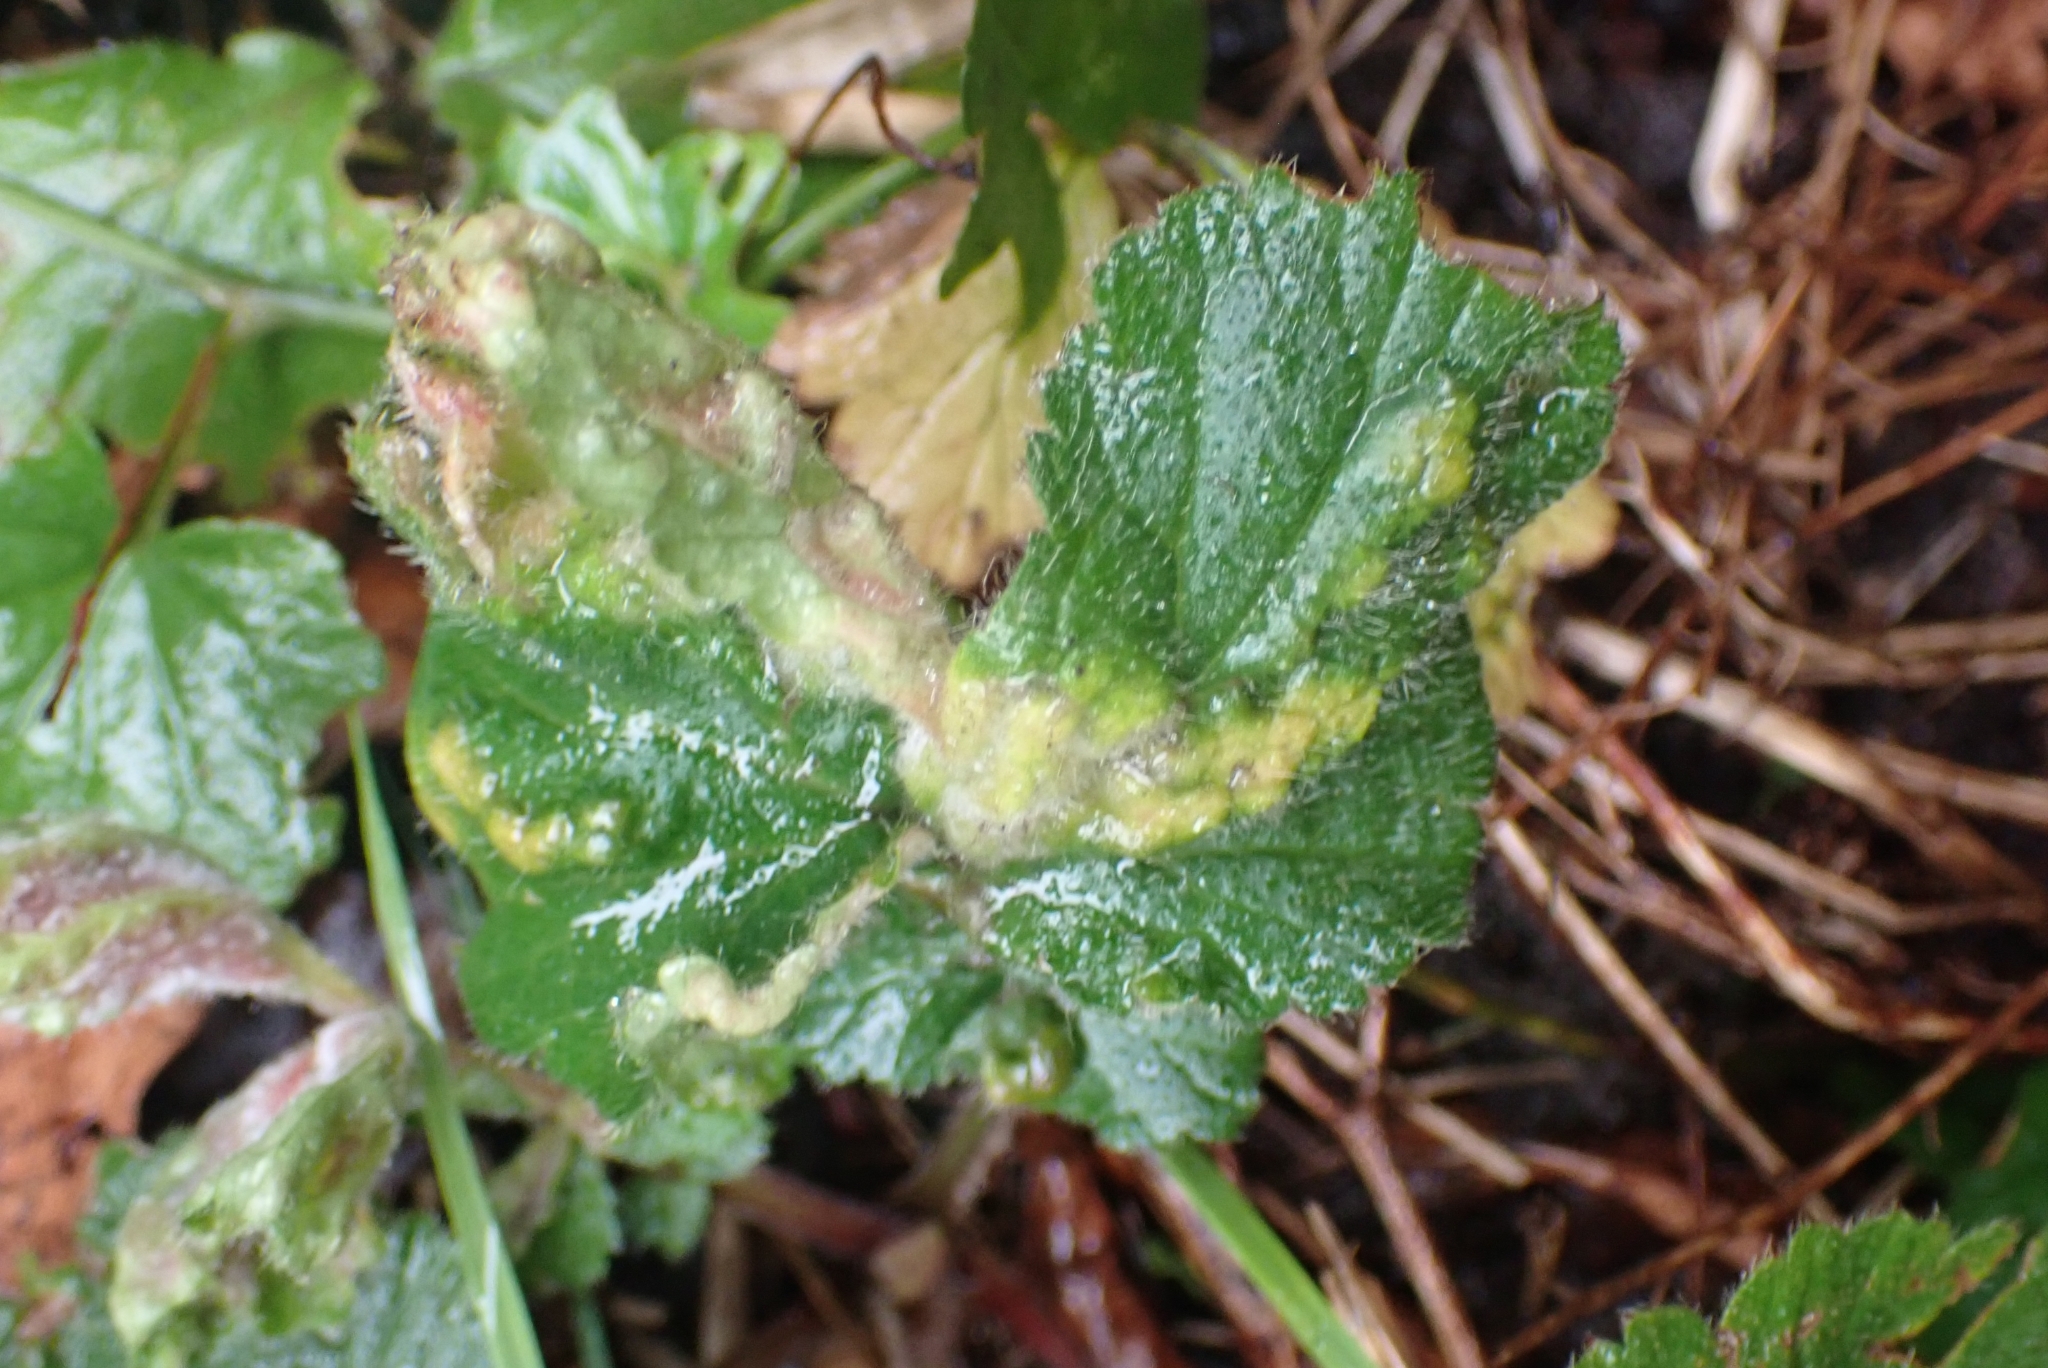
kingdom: Animalia
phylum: Arthropoda
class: Arachnida
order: Trombidiformes
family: Eriophyidae
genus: Cecidophyes
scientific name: Cecidophyes nudus
